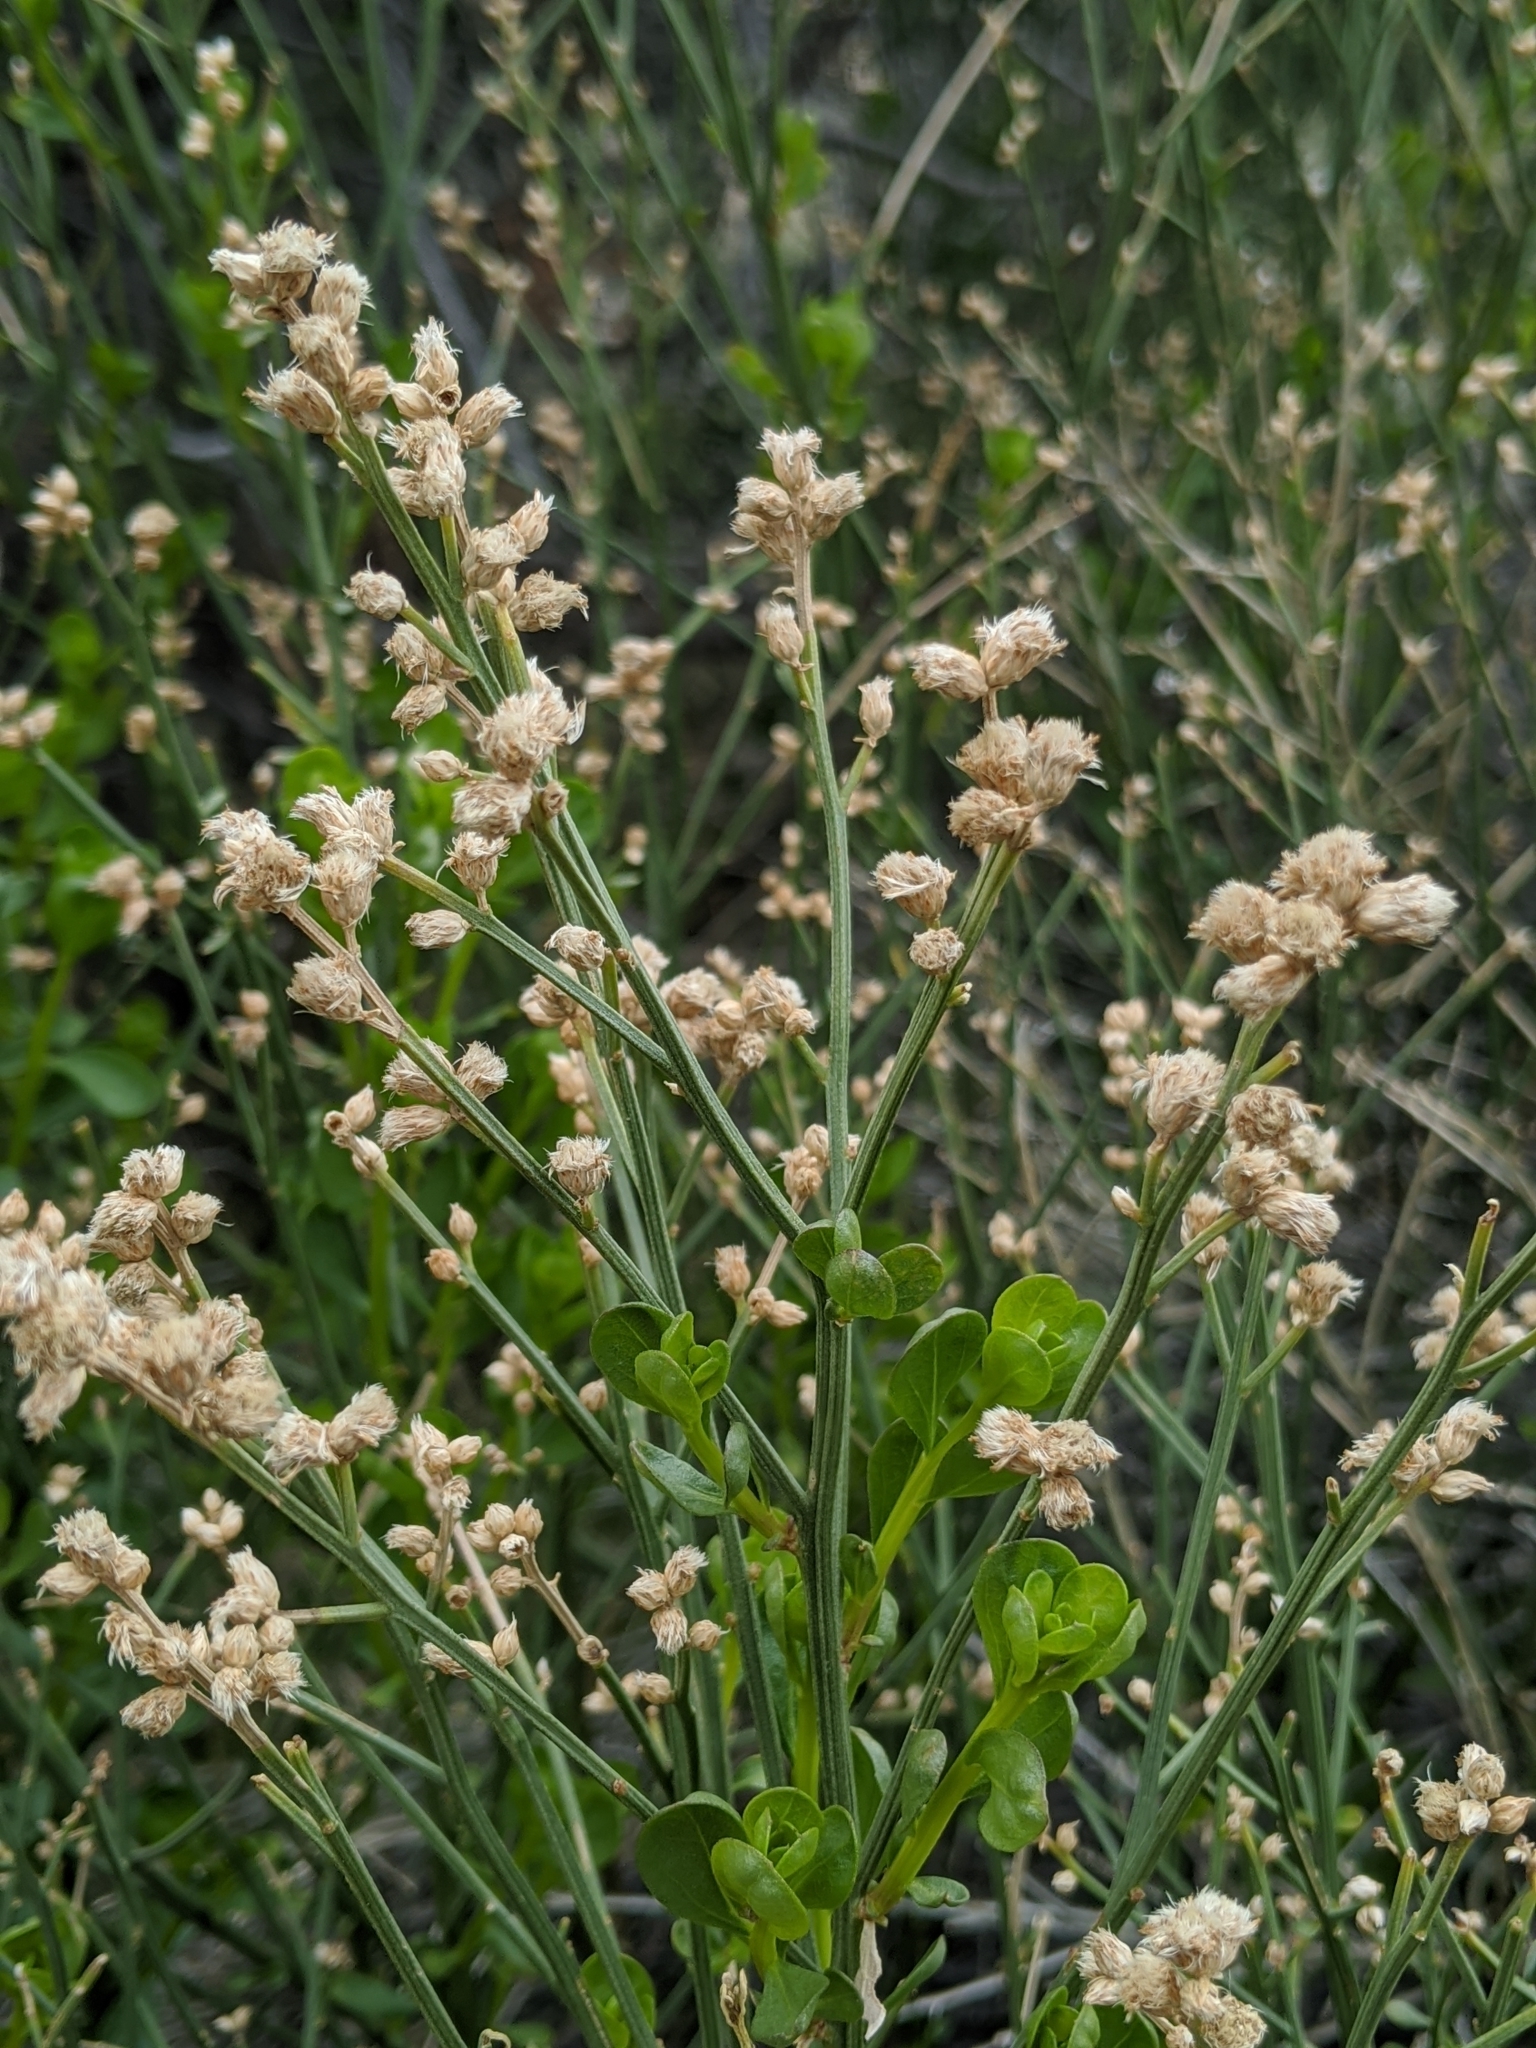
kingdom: Plantae
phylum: Tracheophyta
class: Magnoliopsida
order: Asterales
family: Asteraceae
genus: Baccharis
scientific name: Baccharis sergiloides
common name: Desert baccharis
